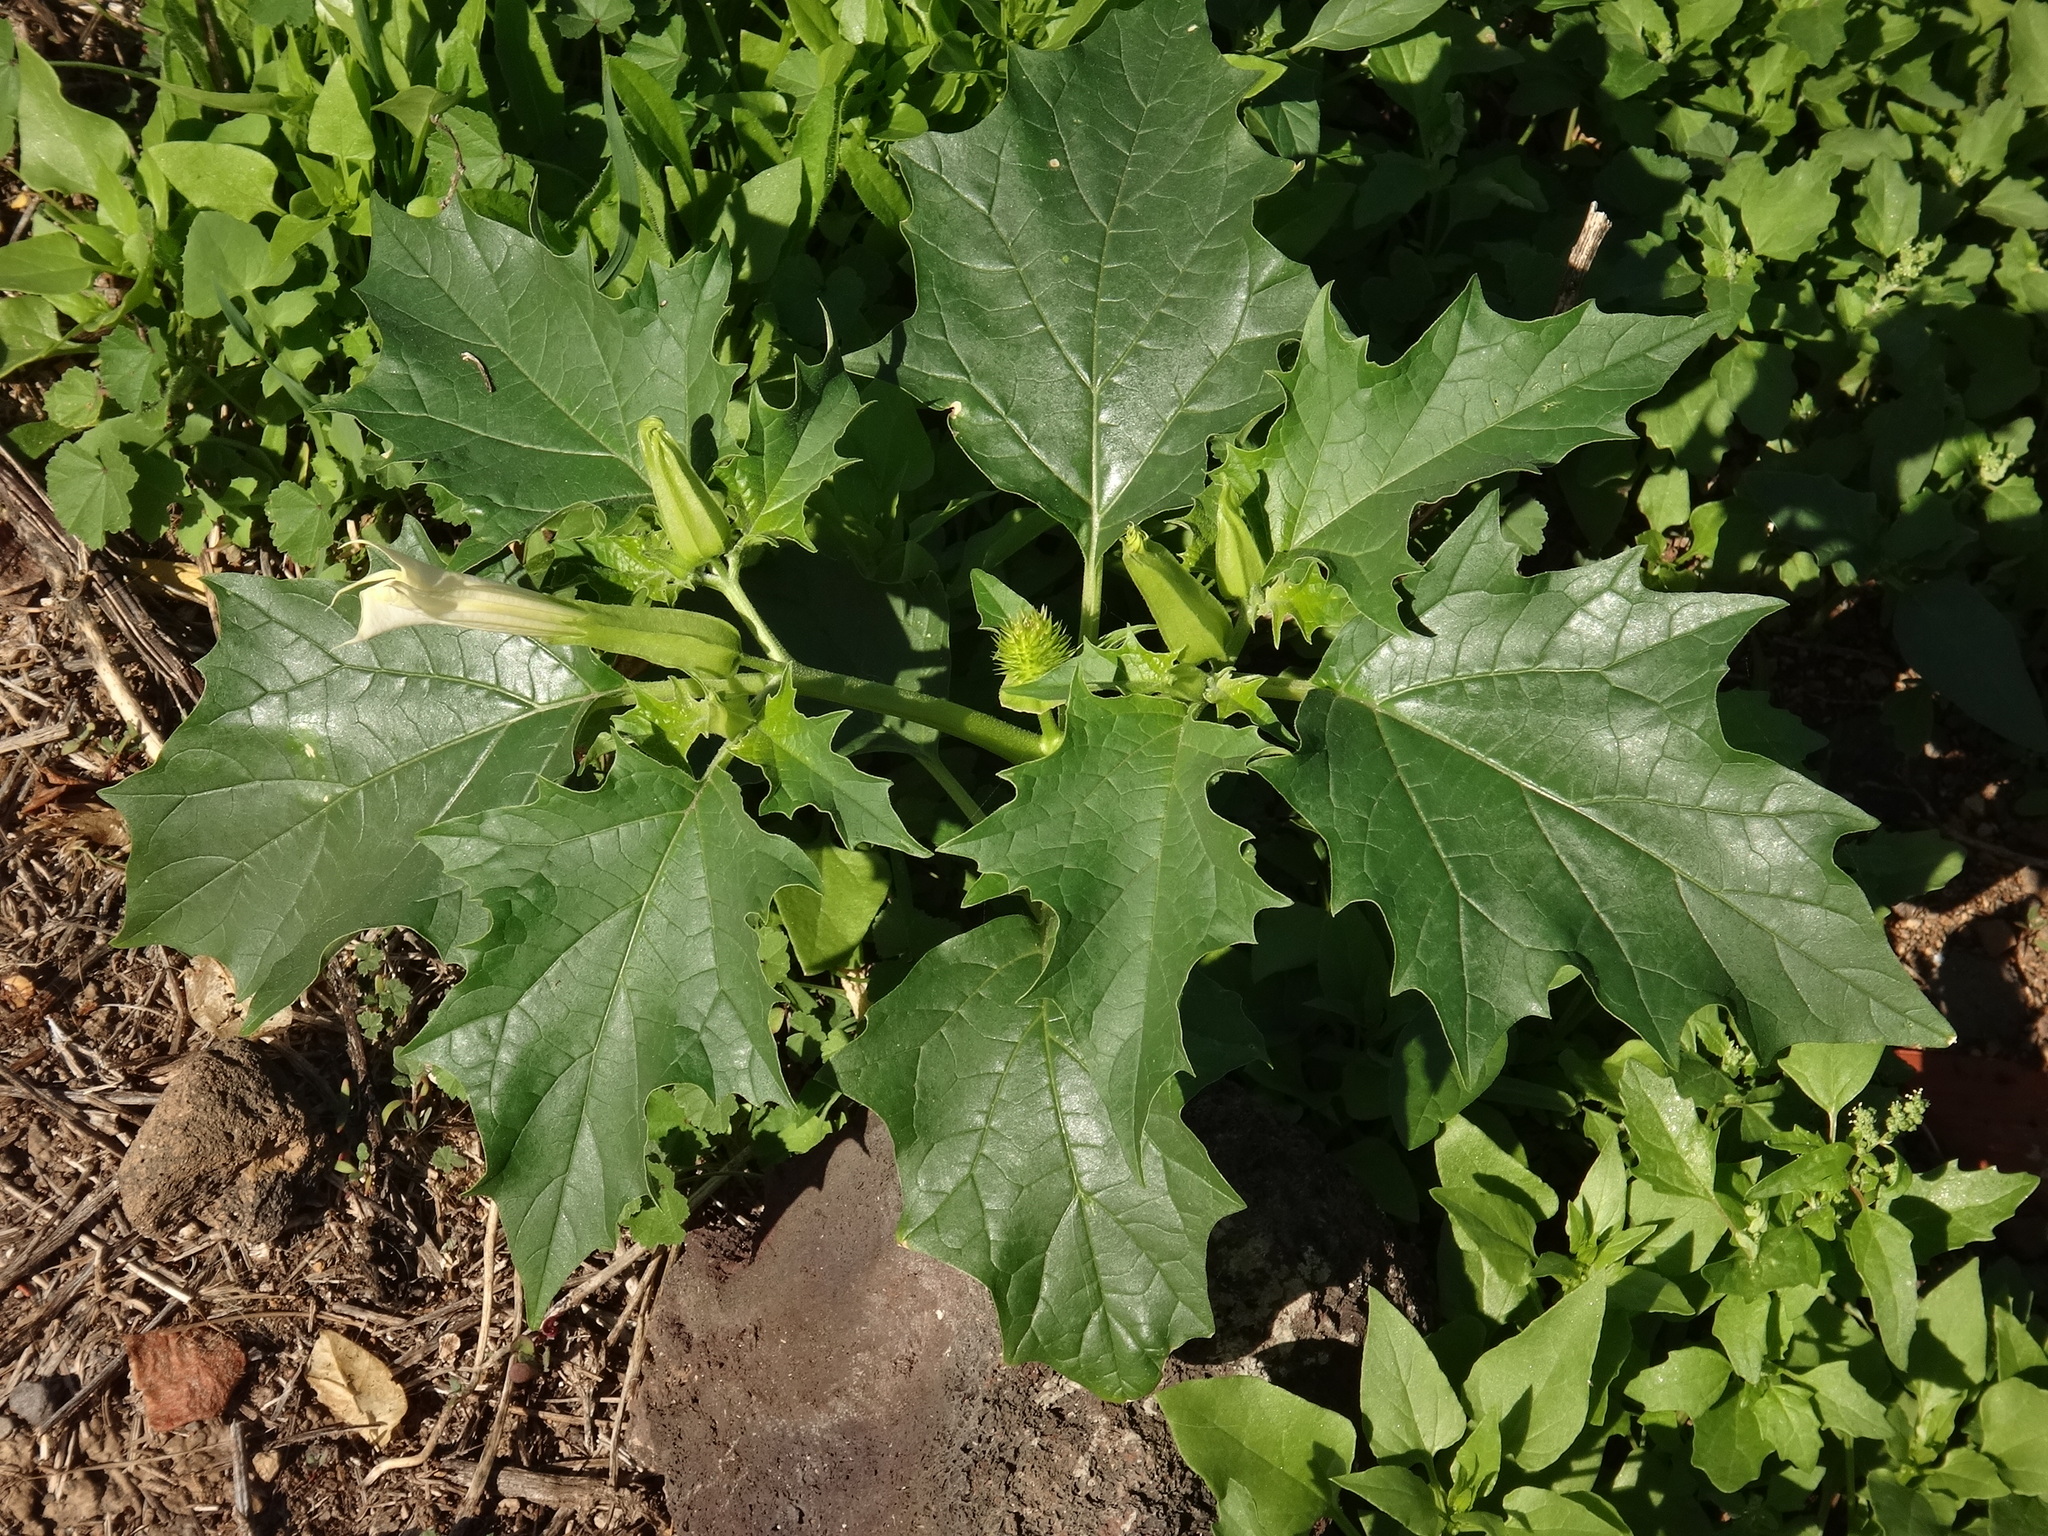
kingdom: Plantae
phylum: Tracheophyta
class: Magnoliopsida
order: Solanales
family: Solanaceae
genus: Datura
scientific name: Datura stramonium
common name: Thorn-apple
